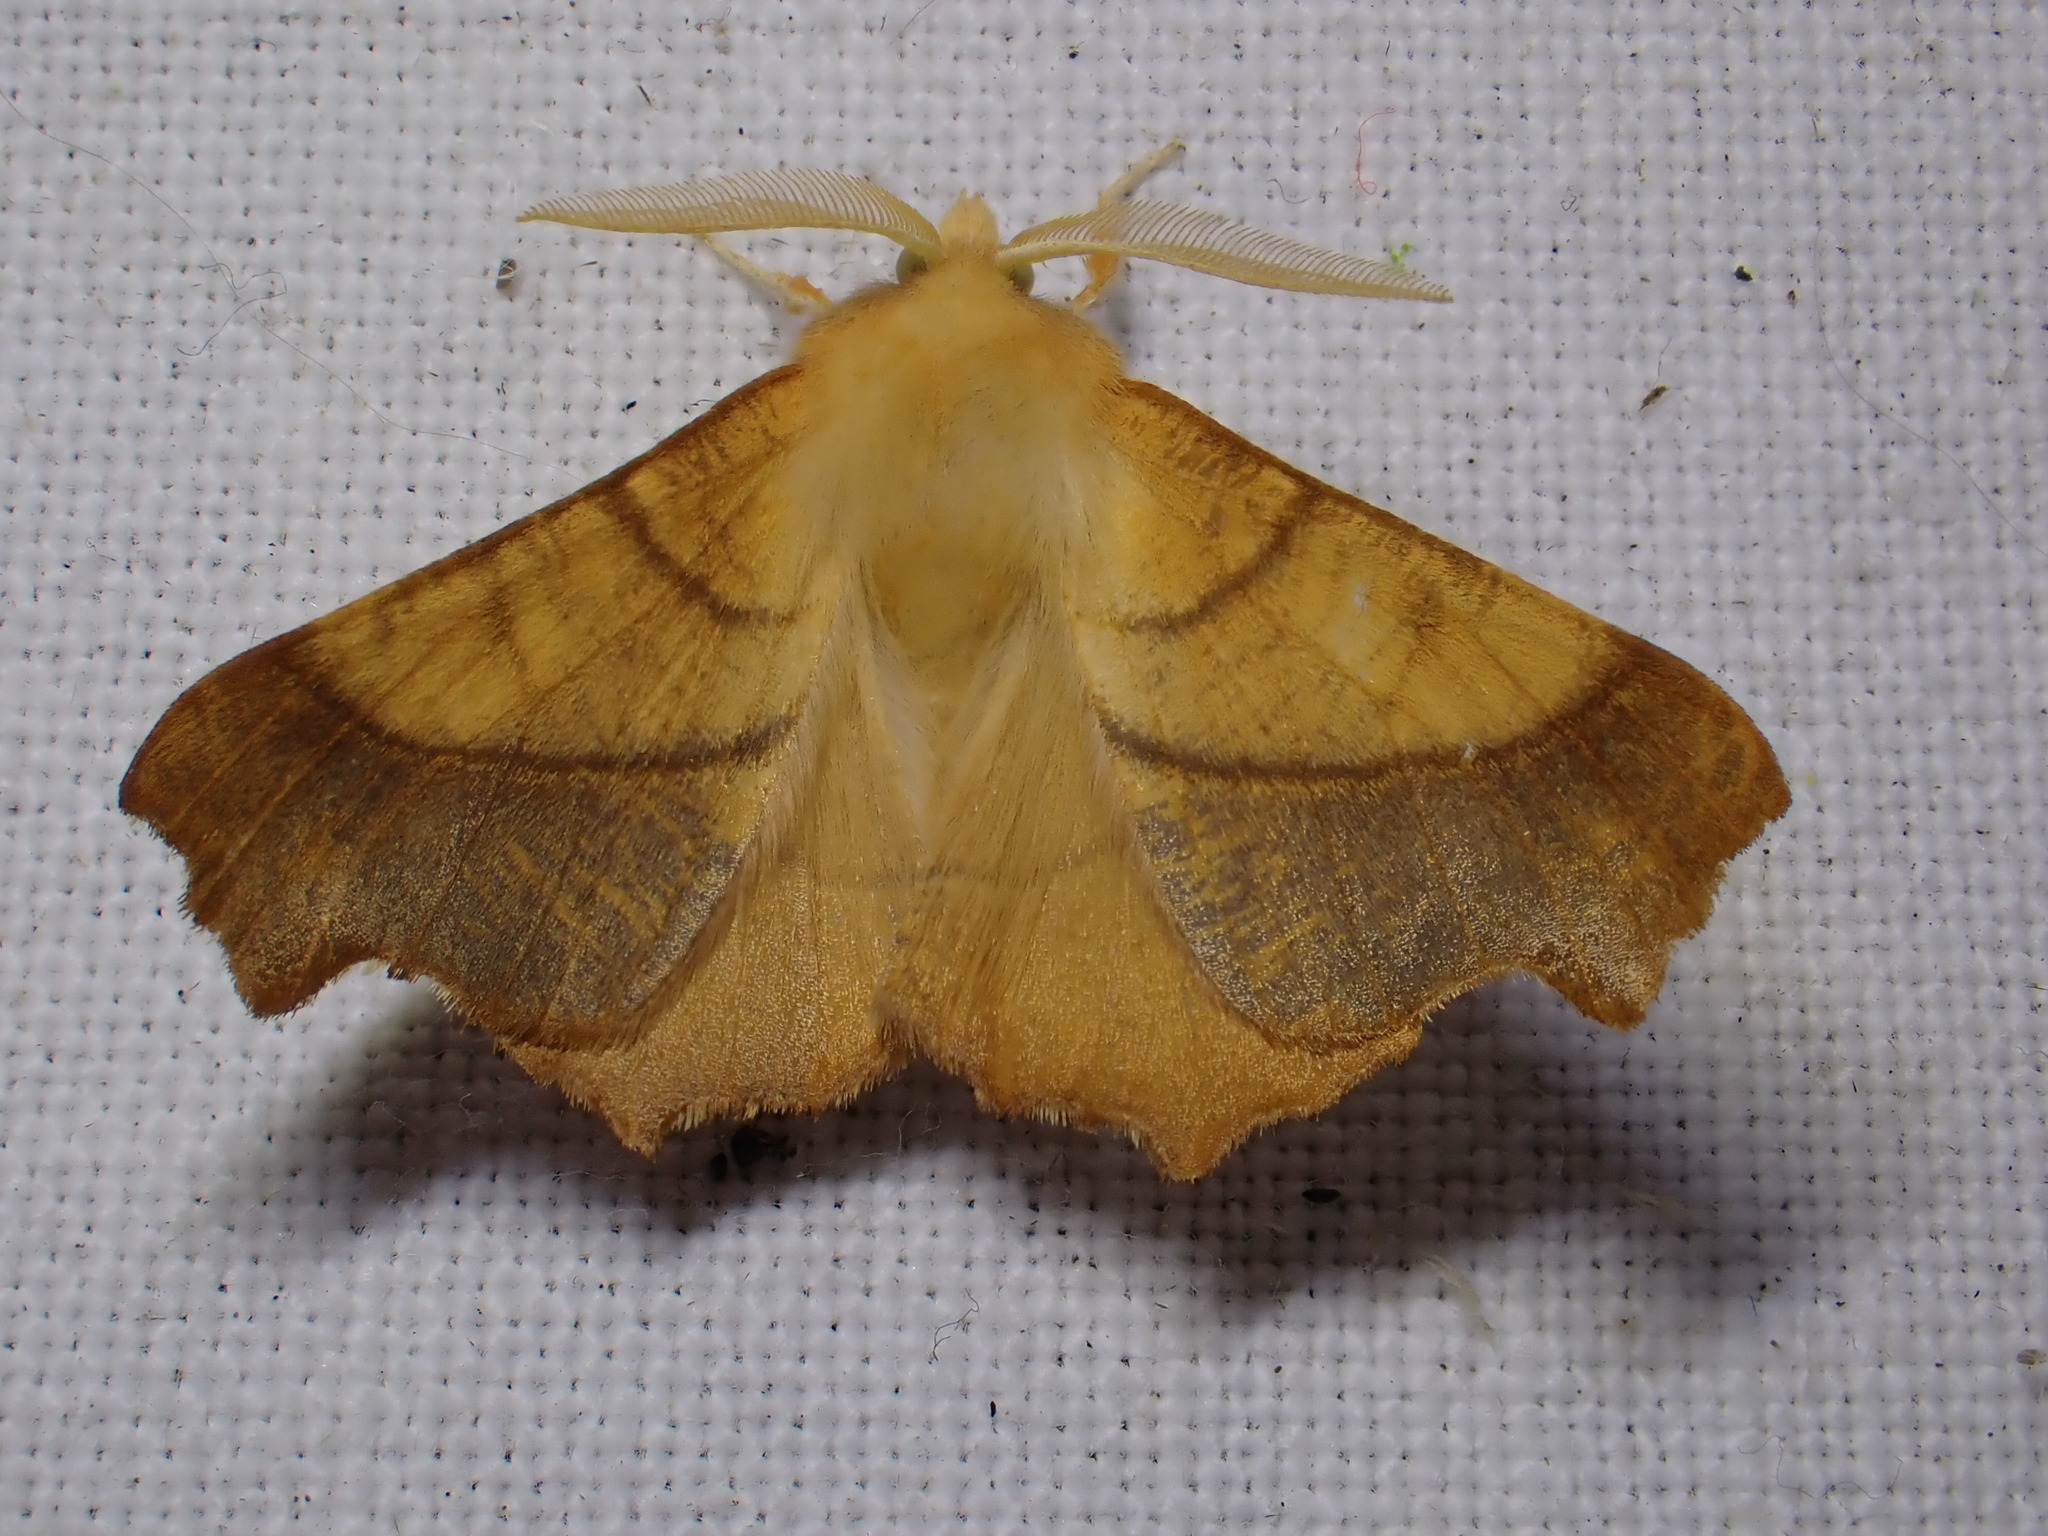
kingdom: Animalia
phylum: Arthropoda
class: Insecta
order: Lepidoptera
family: Geometridae
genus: Ennomos
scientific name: Ennomos fuscantaria
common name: Dusky thorn
